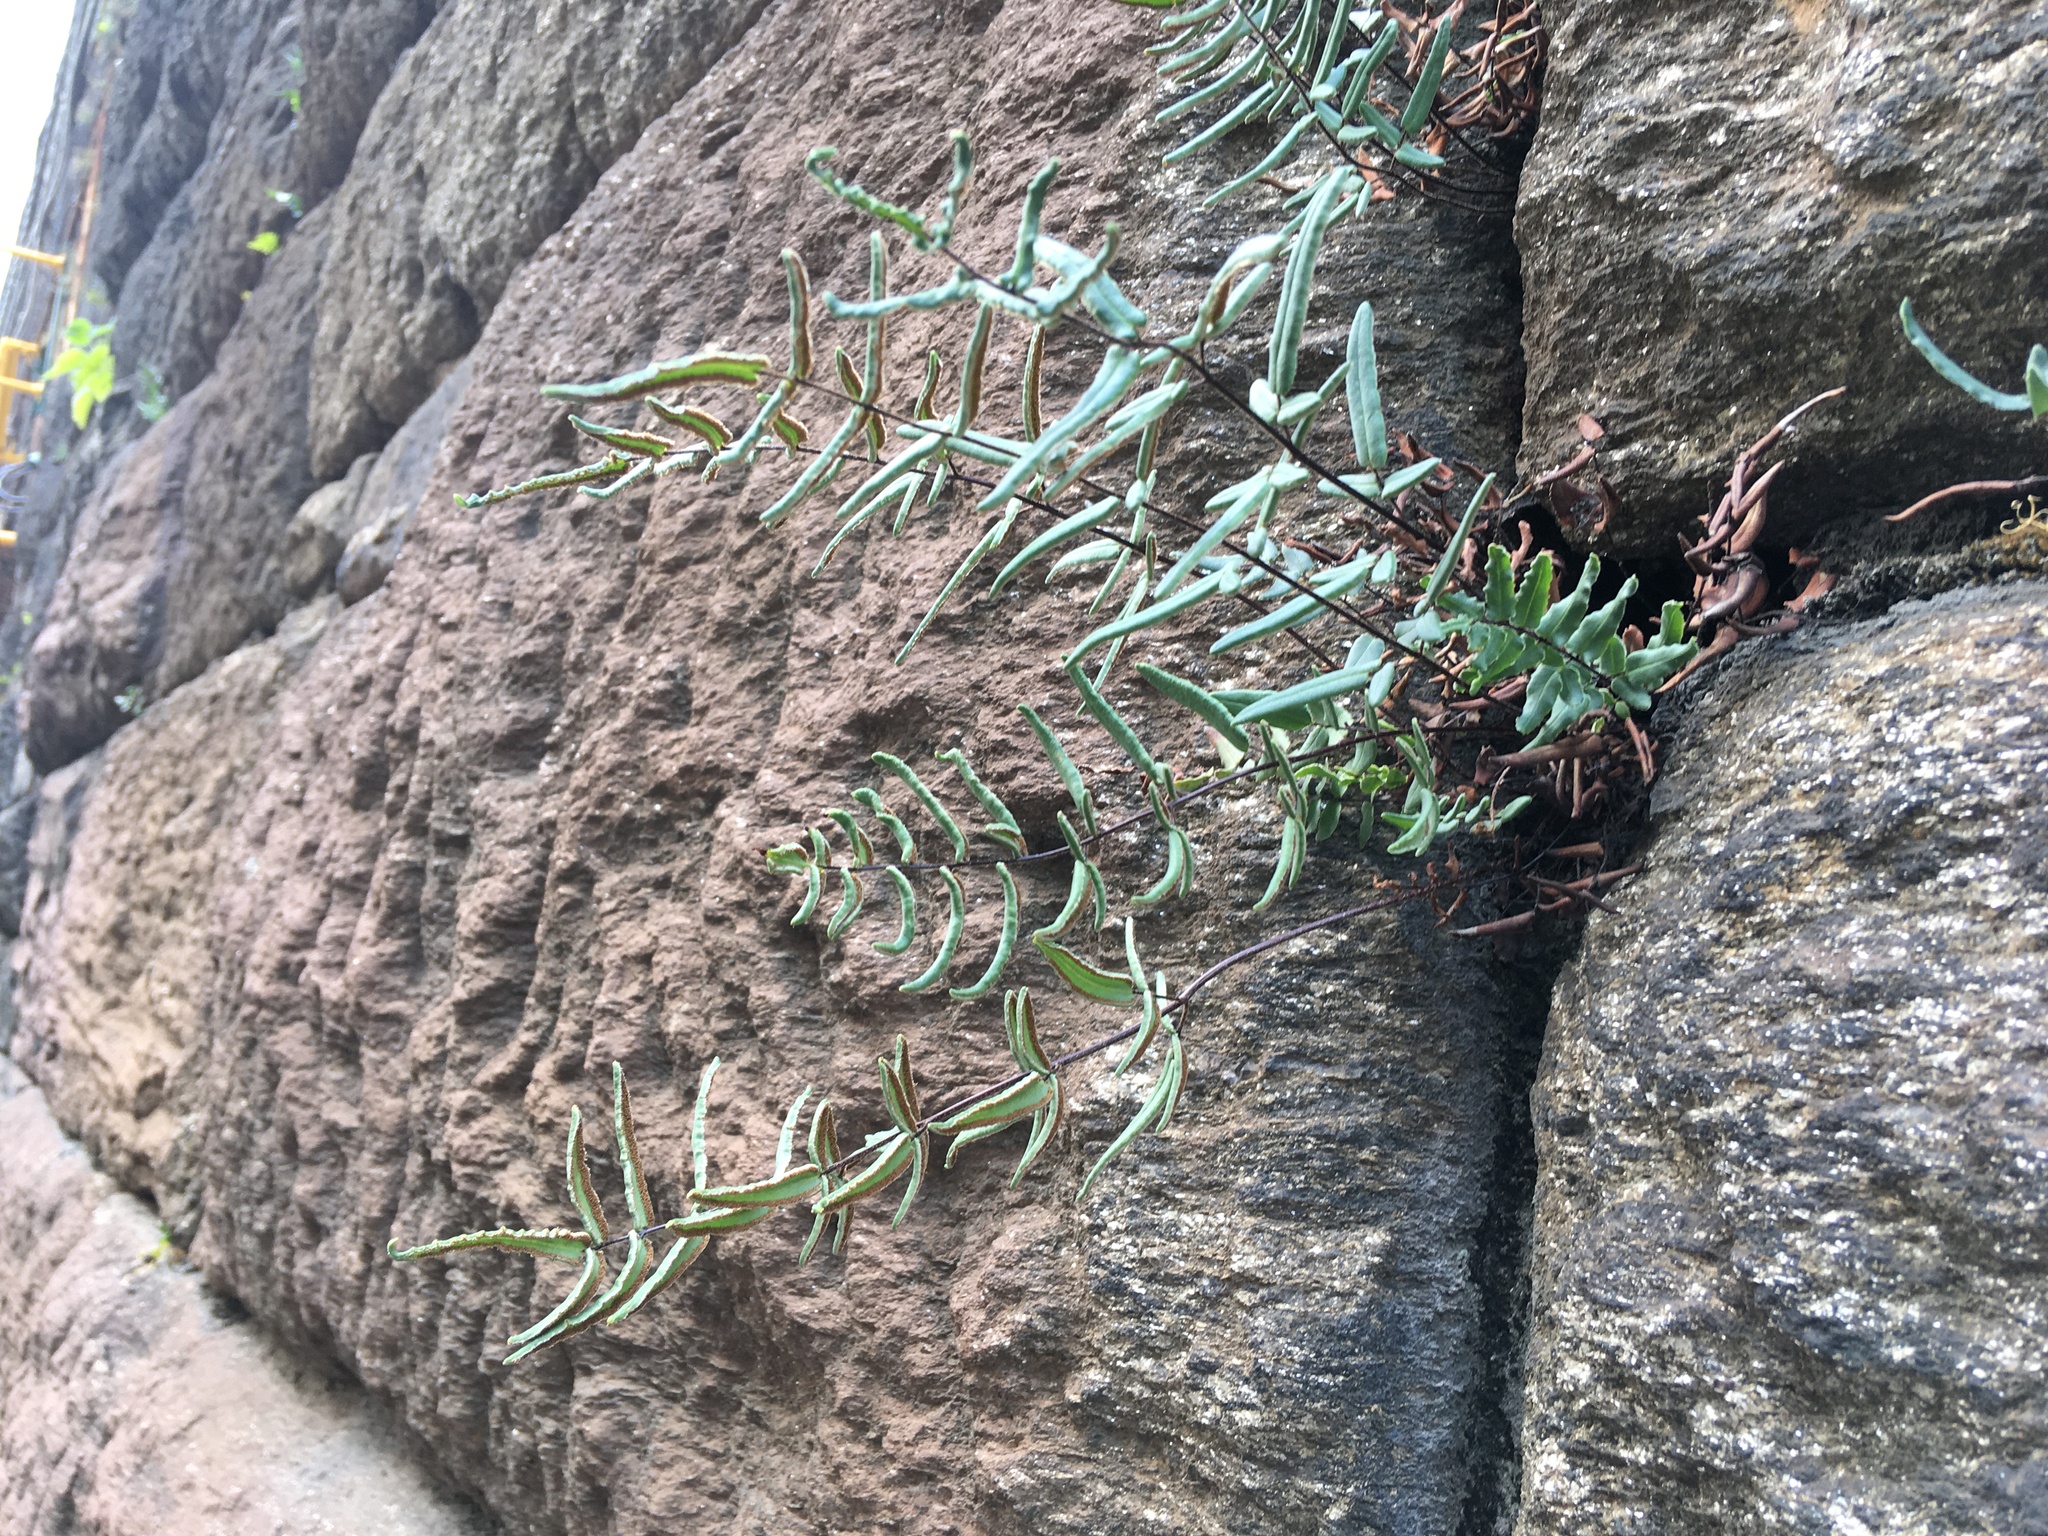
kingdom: Plantae
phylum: Tracheophyta
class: Polypodiopsida
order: Polypodiales
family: Pteridaceae
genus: Pellaea
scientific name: Pellaea atropurpurea
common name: Hairy cliffbrake
